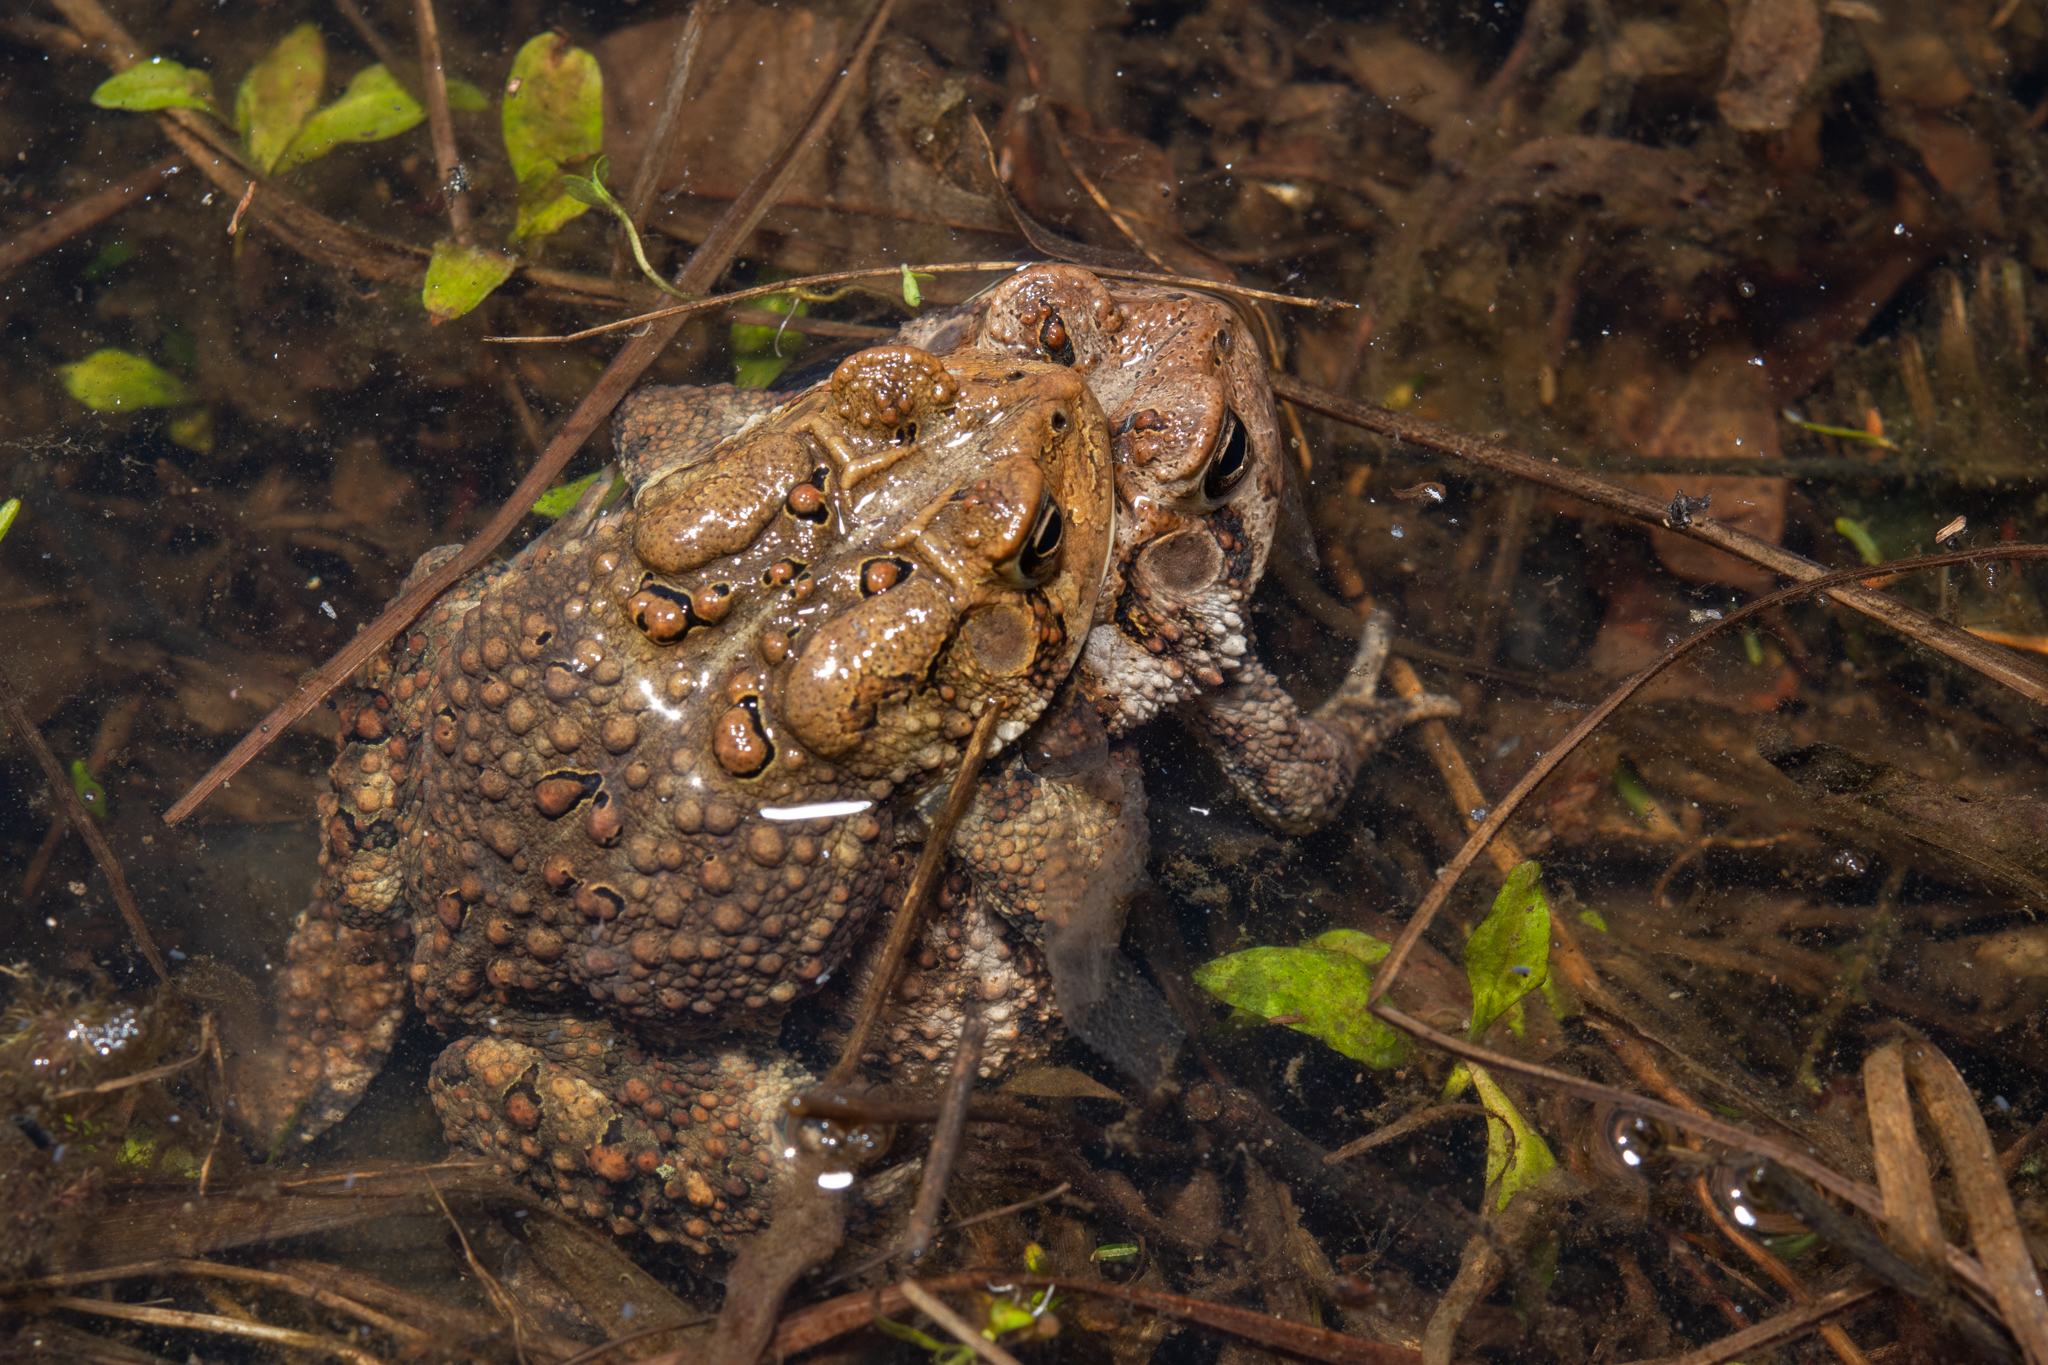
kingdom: Animalia
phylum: Chordata
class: Amphibia
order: Anura
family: Bufonidae
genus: Anaxyrus
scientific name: Anaxyrus americanus
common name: American toad
